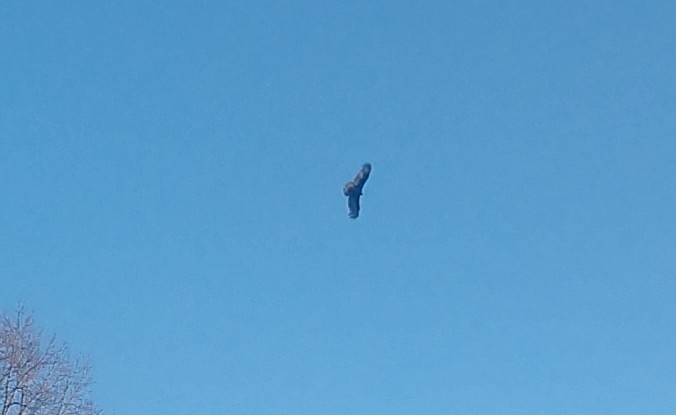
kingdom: Animalia
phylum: Chordata
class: Aves
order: Accipitriformes
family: Cathartidae
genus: Cathartes
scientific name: Cathartes aura
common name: Turkey vulture
